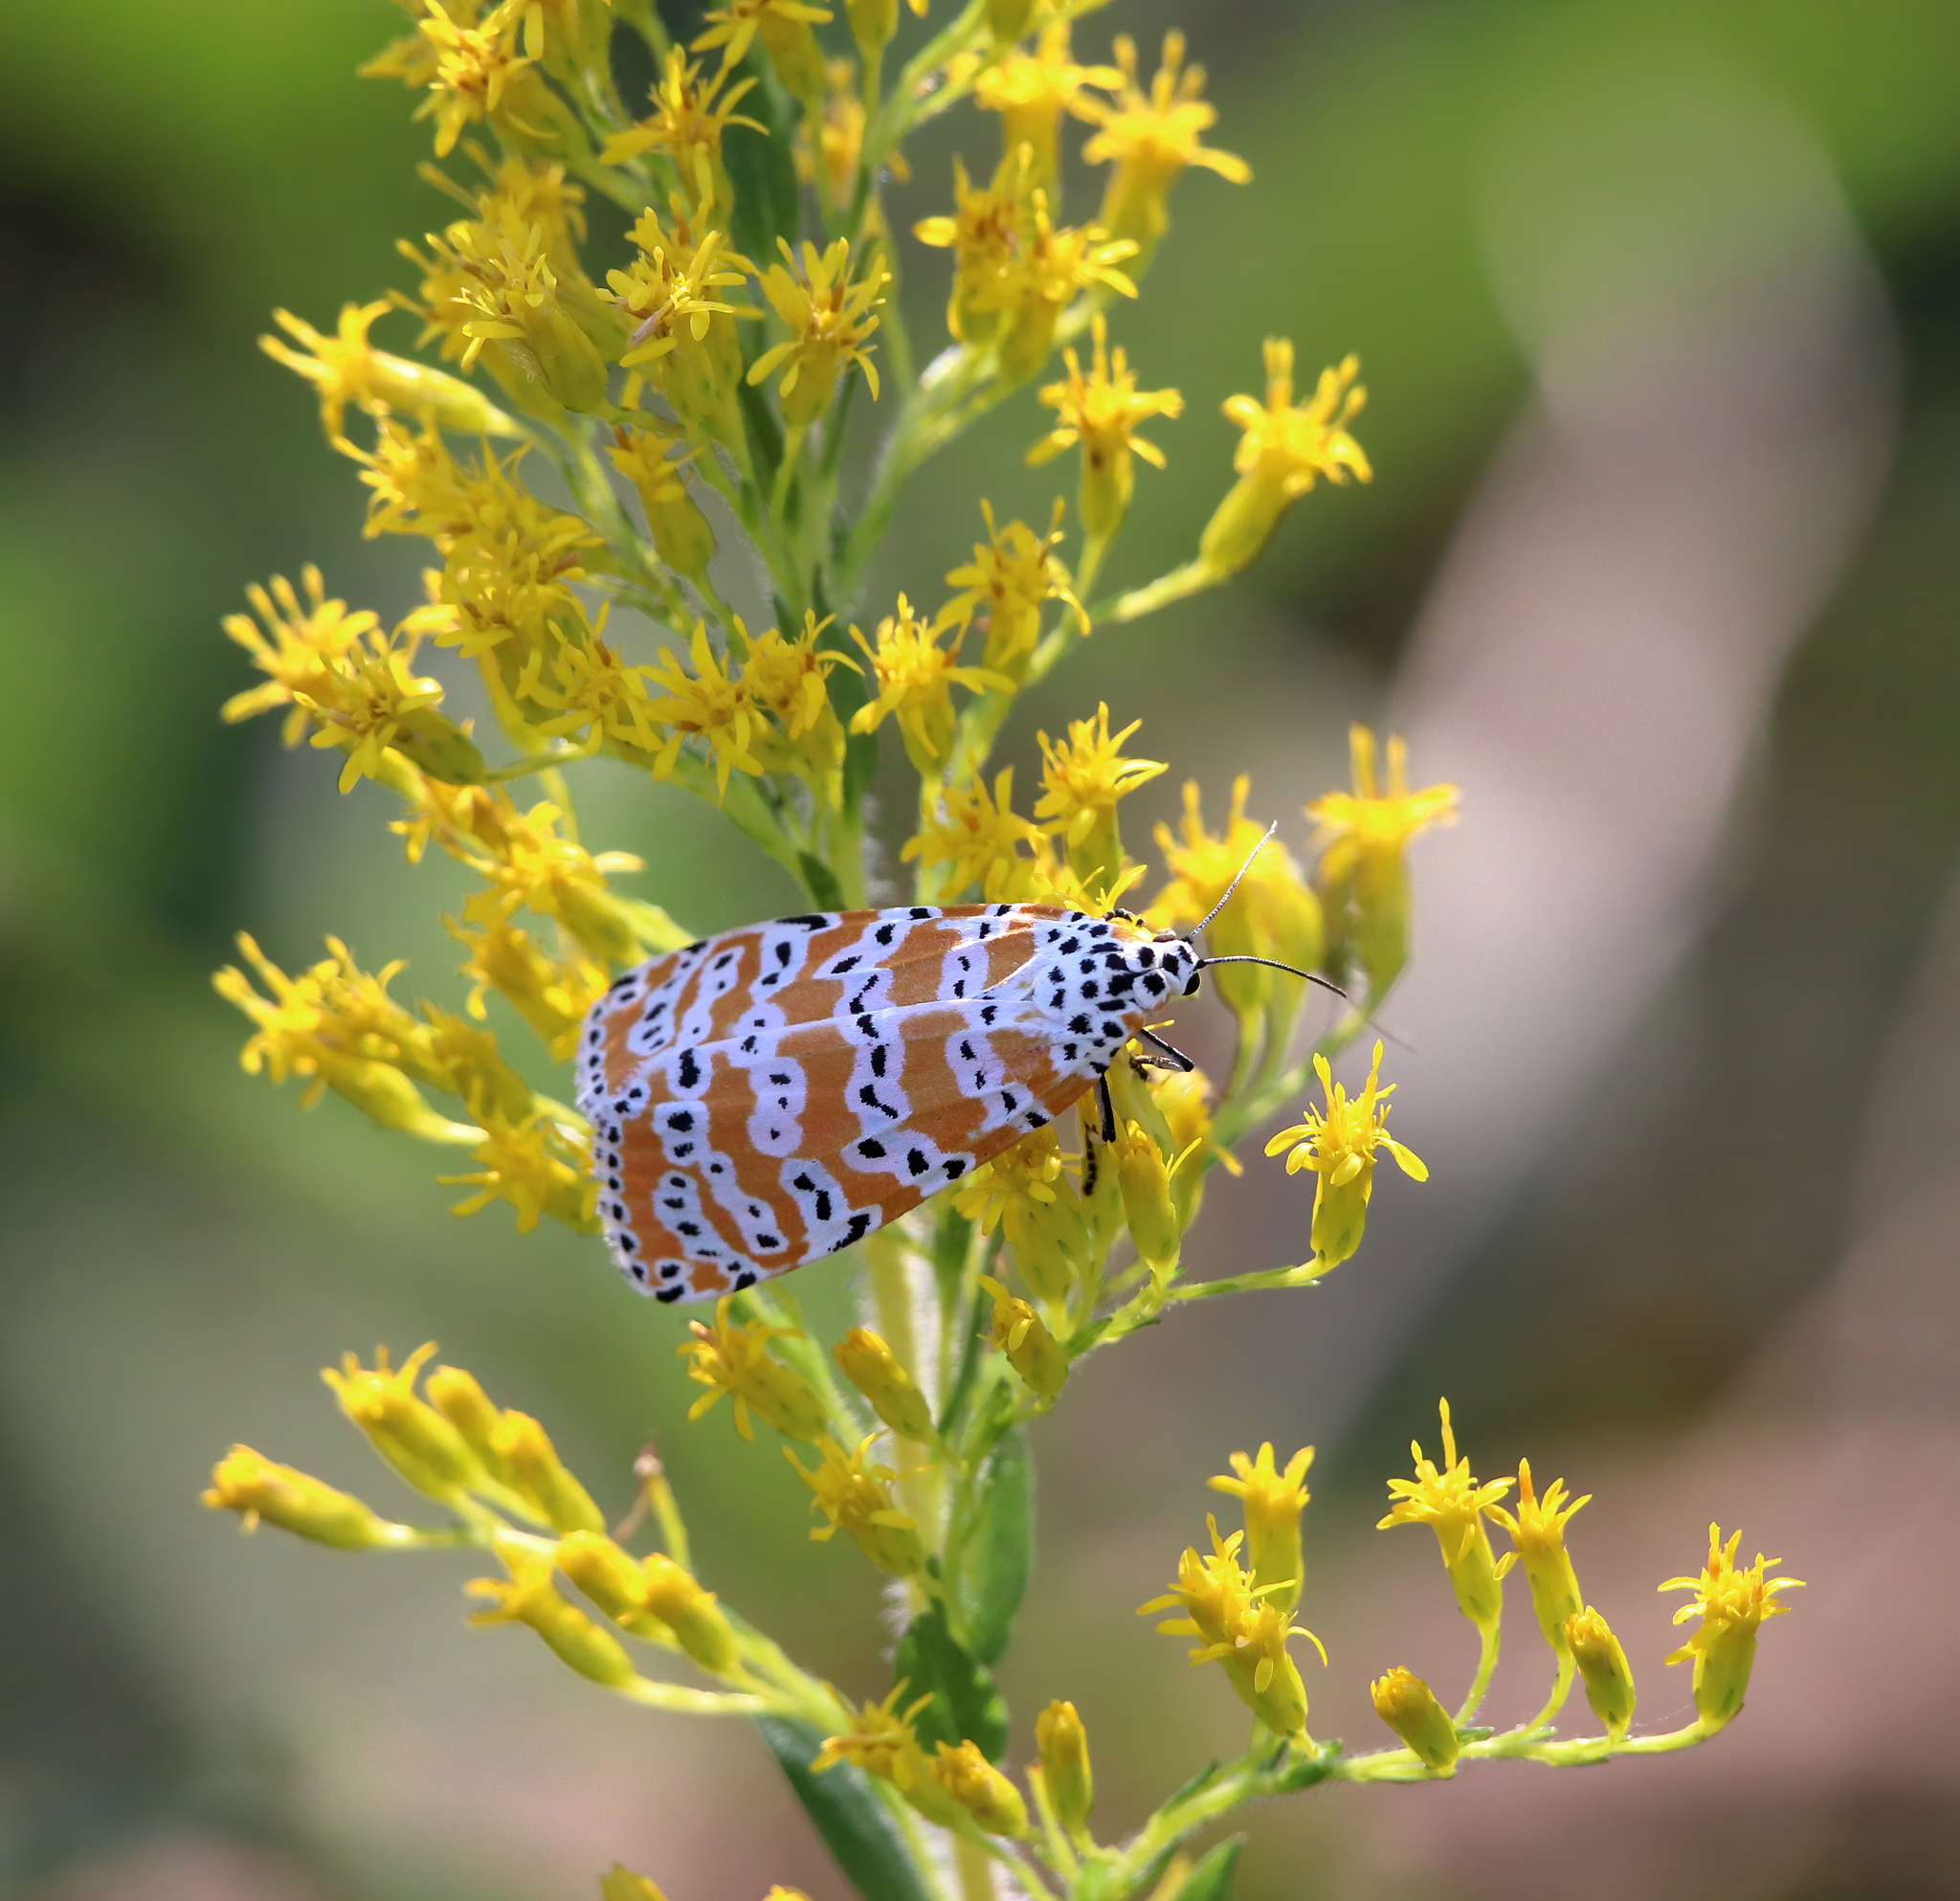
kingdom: Animalia
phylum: Arthropoda
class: Insecta
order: Lepidoptera
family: Erebidae
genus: Utetheisa
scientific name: Utetheisa ornatrix
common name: Beautiful utetheisa
